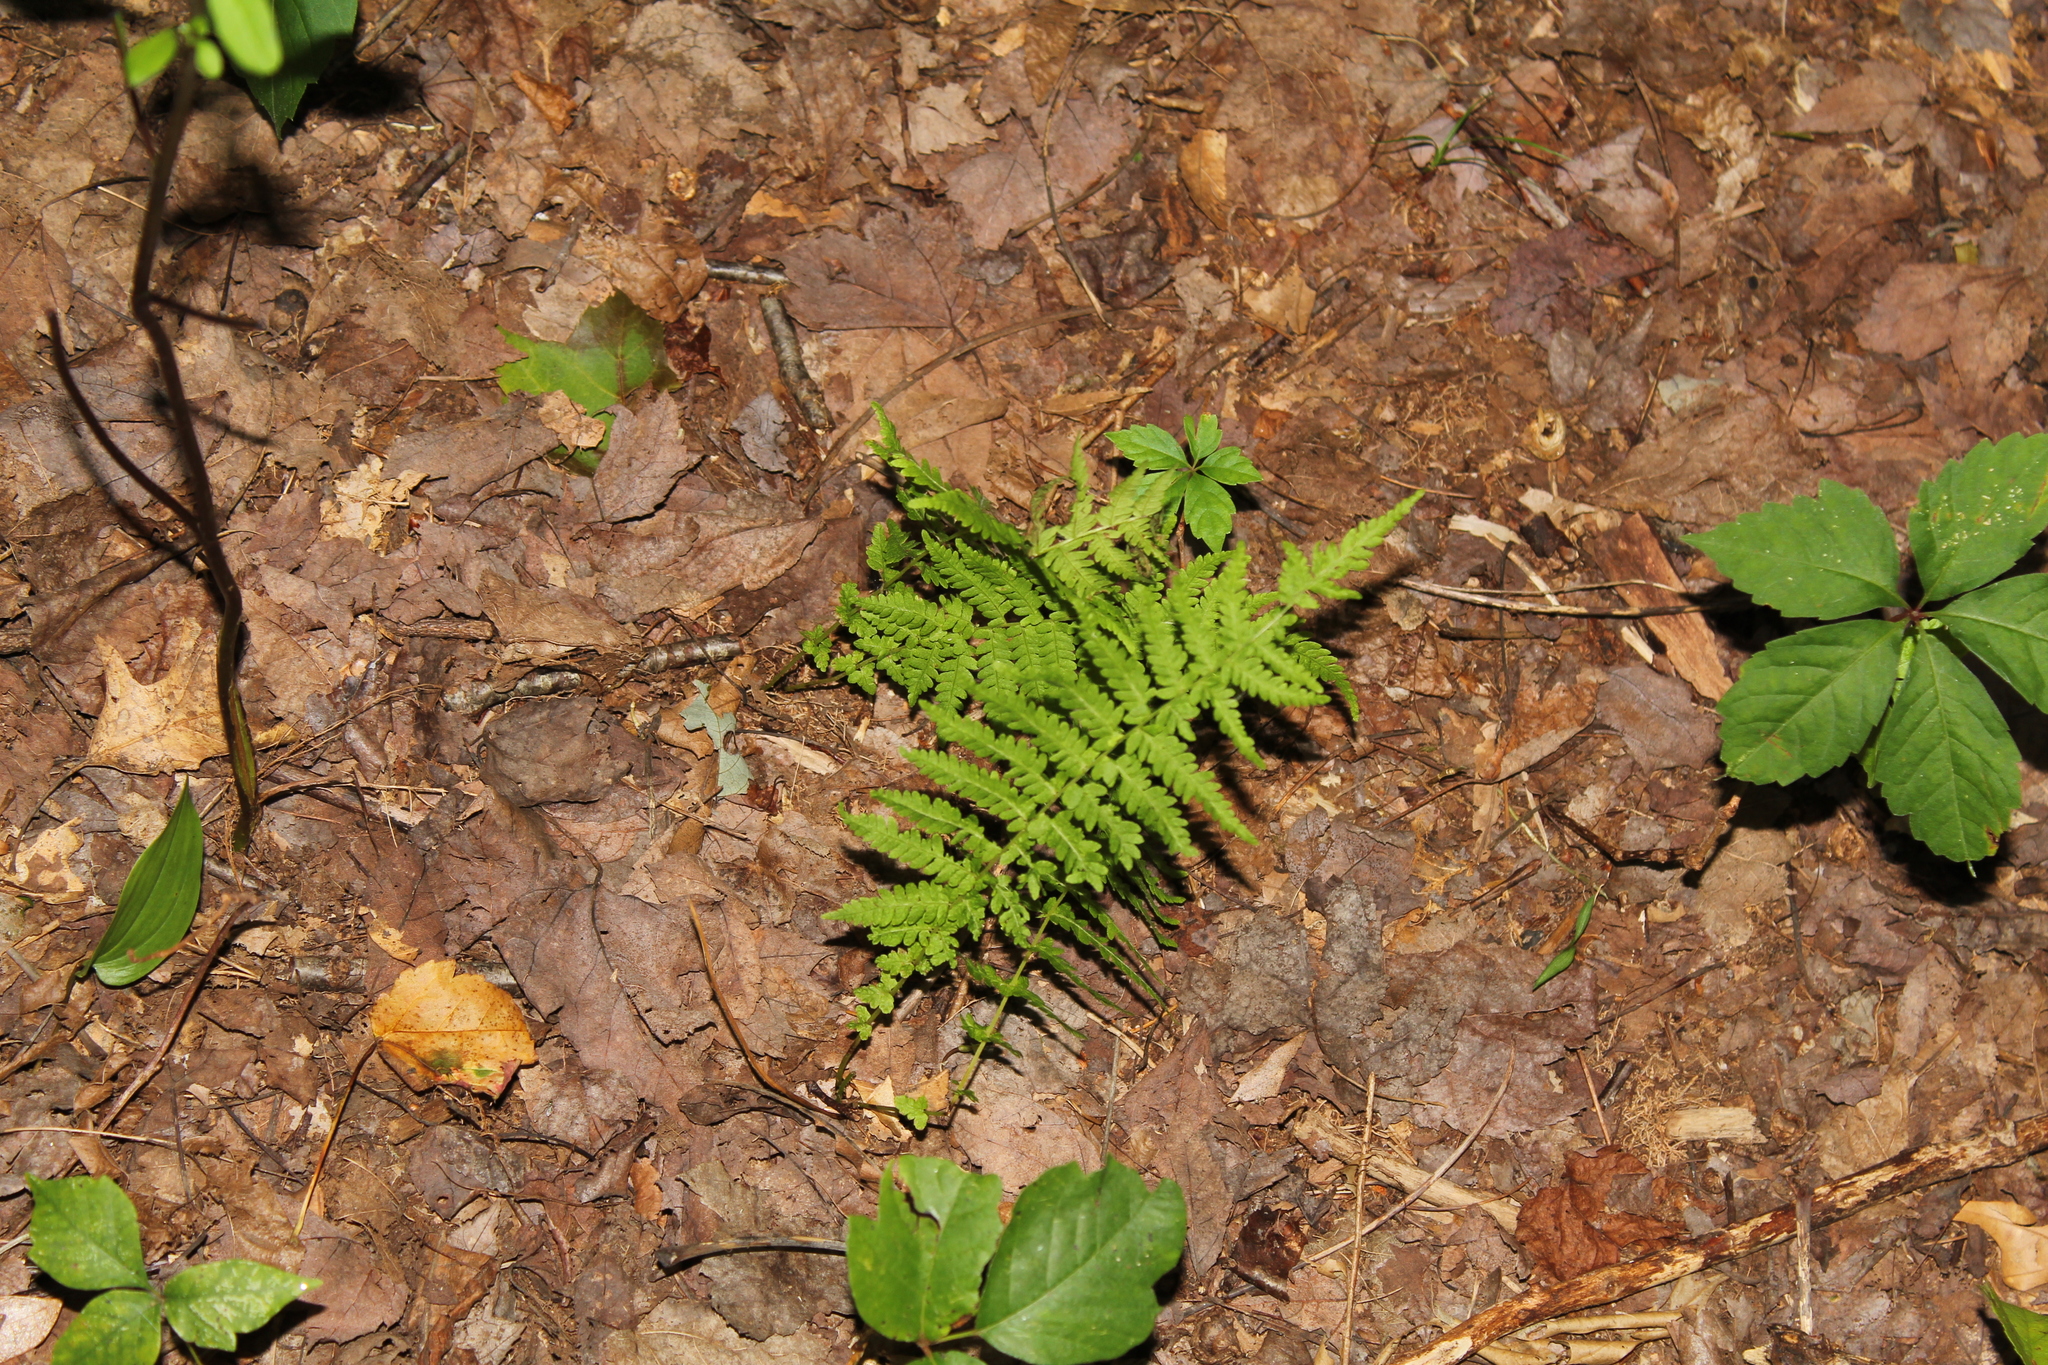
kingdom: Plantae
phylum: Tracheophyta
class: Polypodiopsida
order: Polypodiales
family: Thelypteridaceae
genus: Amauropelta
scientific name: Amauropelta noveboracensis
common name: New york fern
